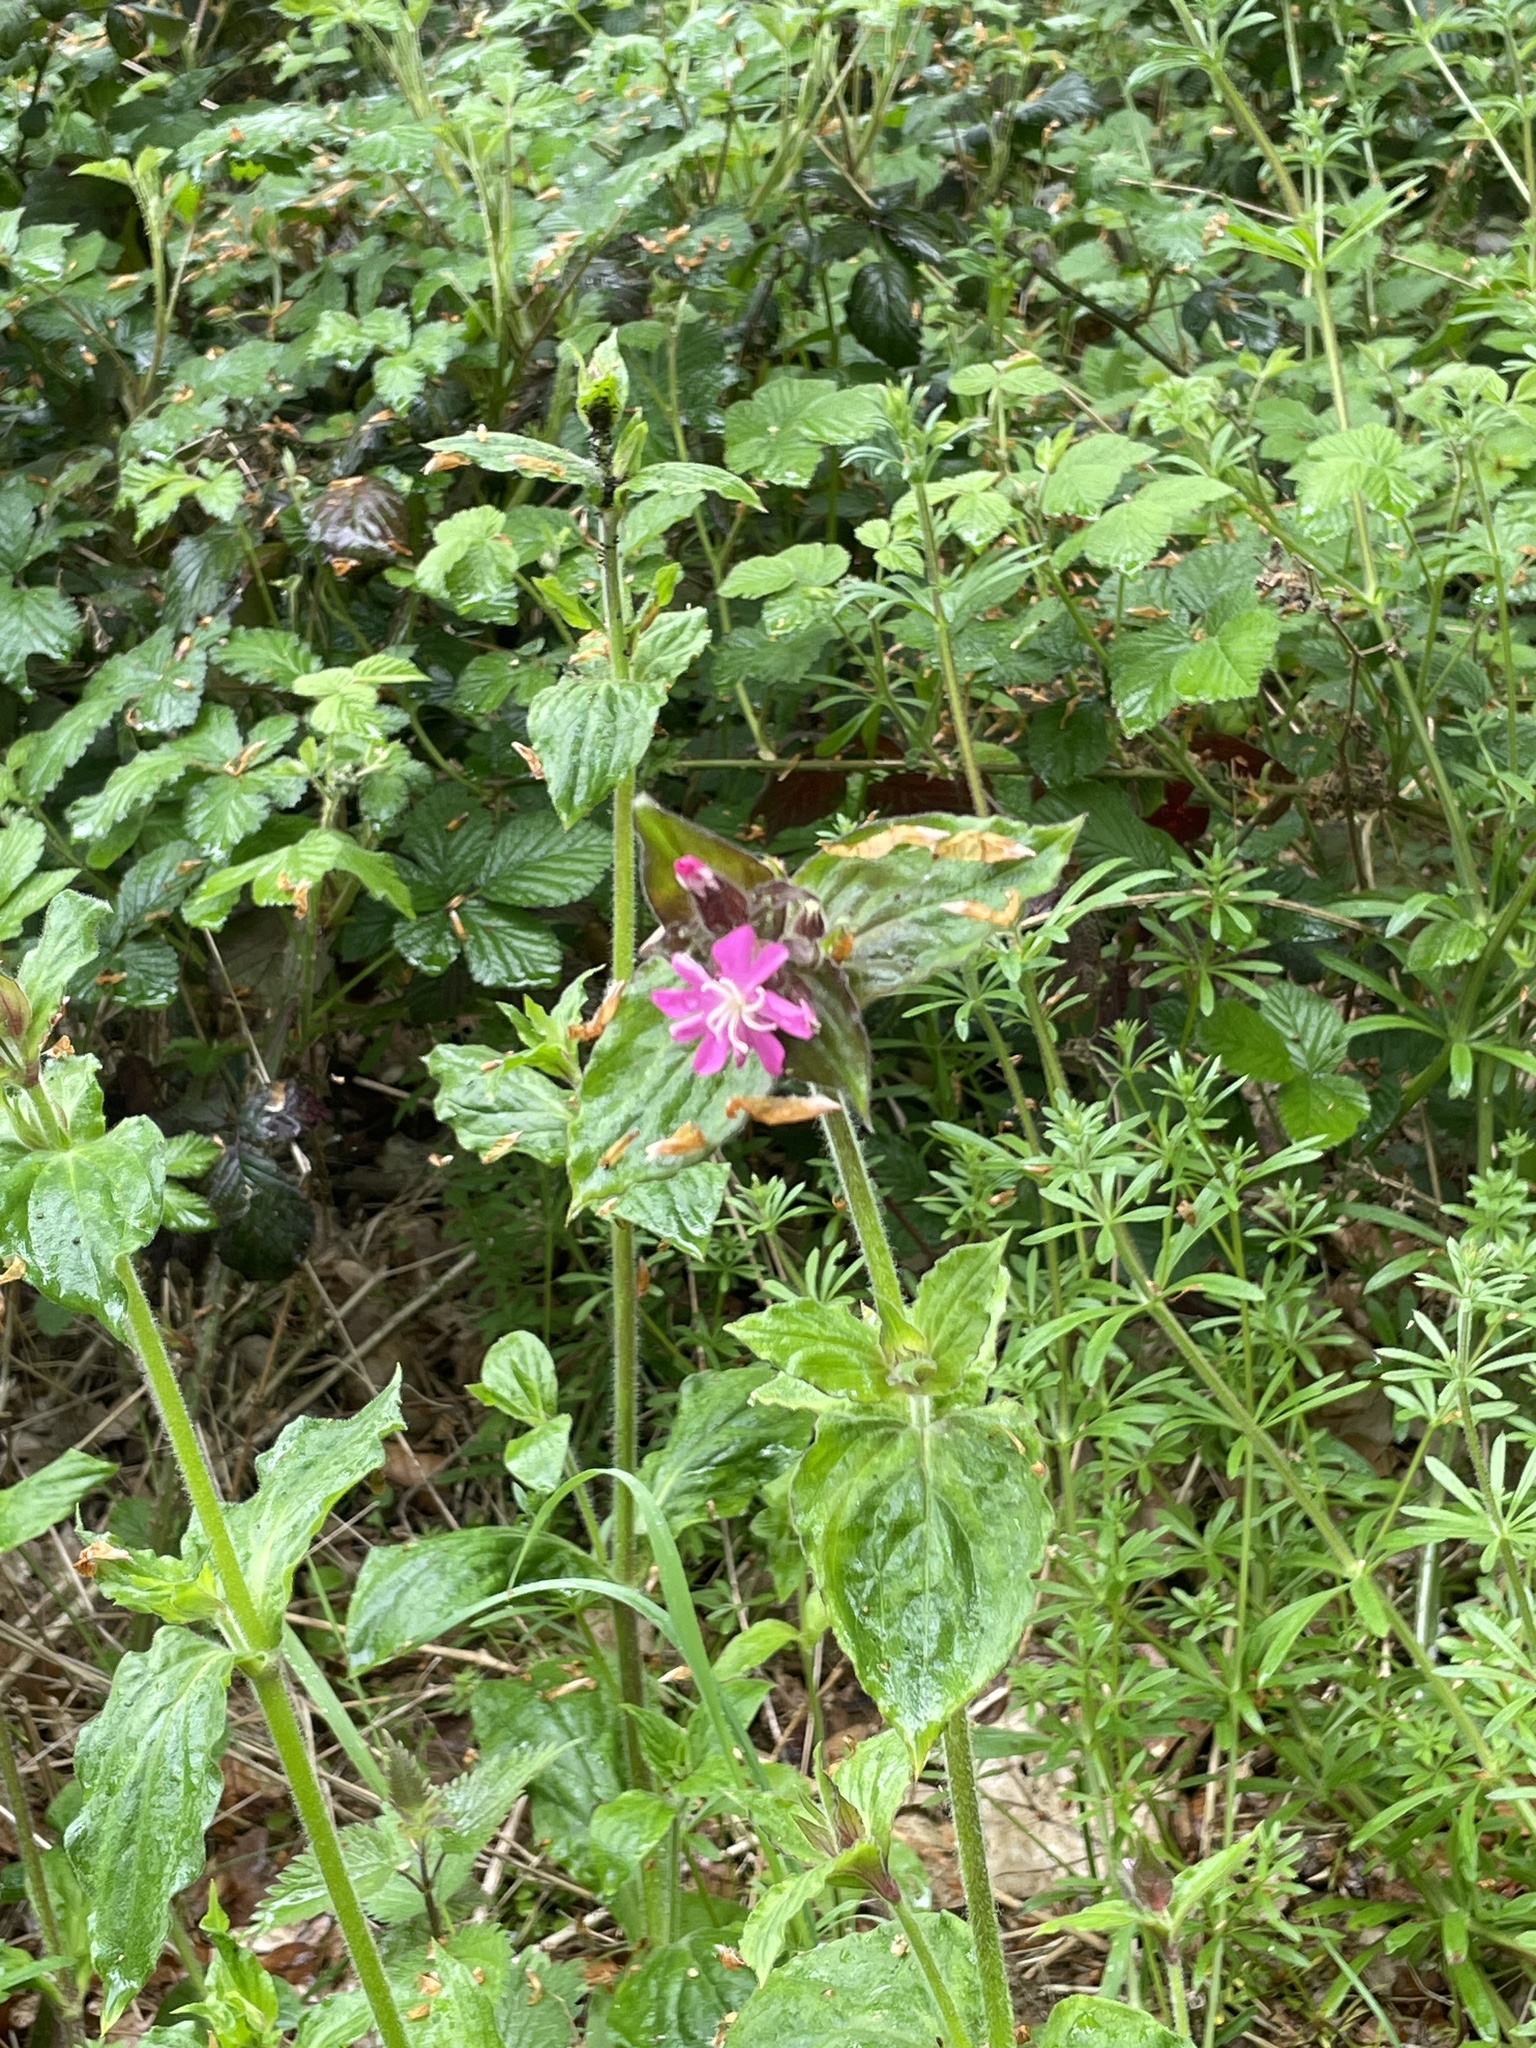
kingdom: Plantae
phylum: Tracheophyta
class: Magnoliopsida
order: Caryophyllales
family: Caryophyllaceae
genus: Silene
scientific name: Silene dioica
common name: Red campion
